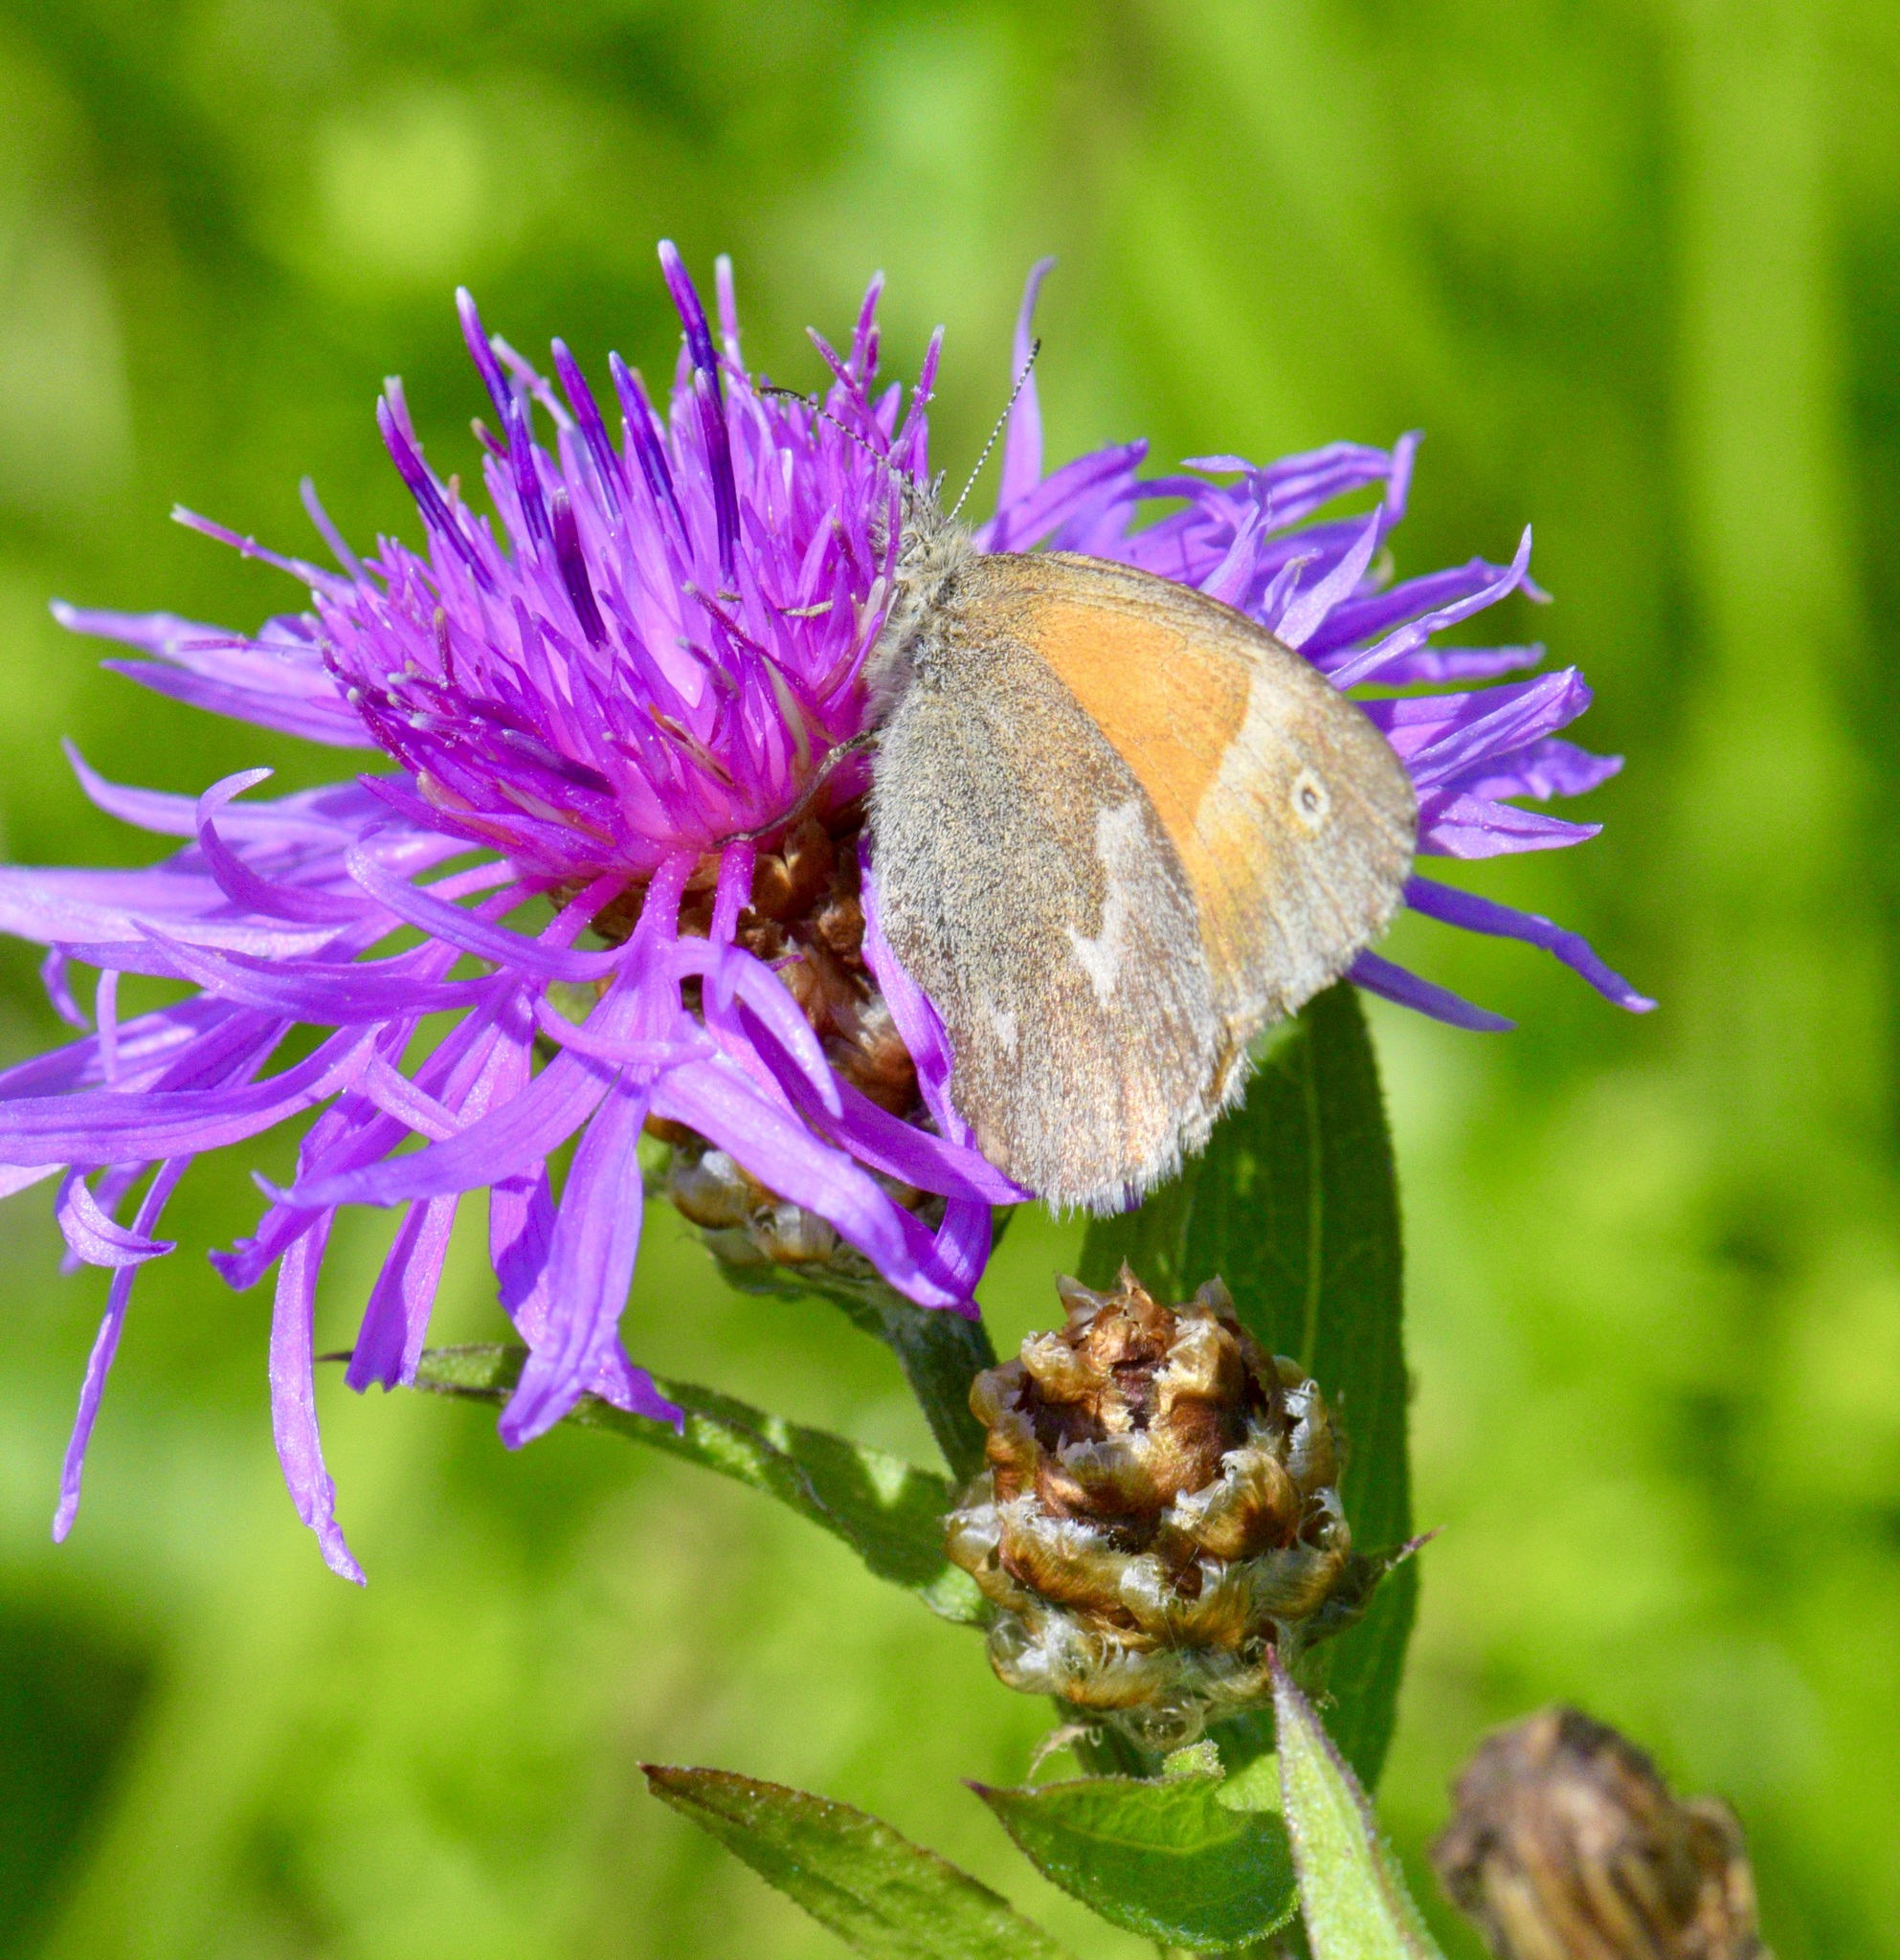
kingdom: Animalia
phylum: Arthropoda
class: Insecta
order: Lepidoptera
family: Nymphalidae
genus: Coenonympha
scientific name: Coenonympha california
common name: Common ringlet
